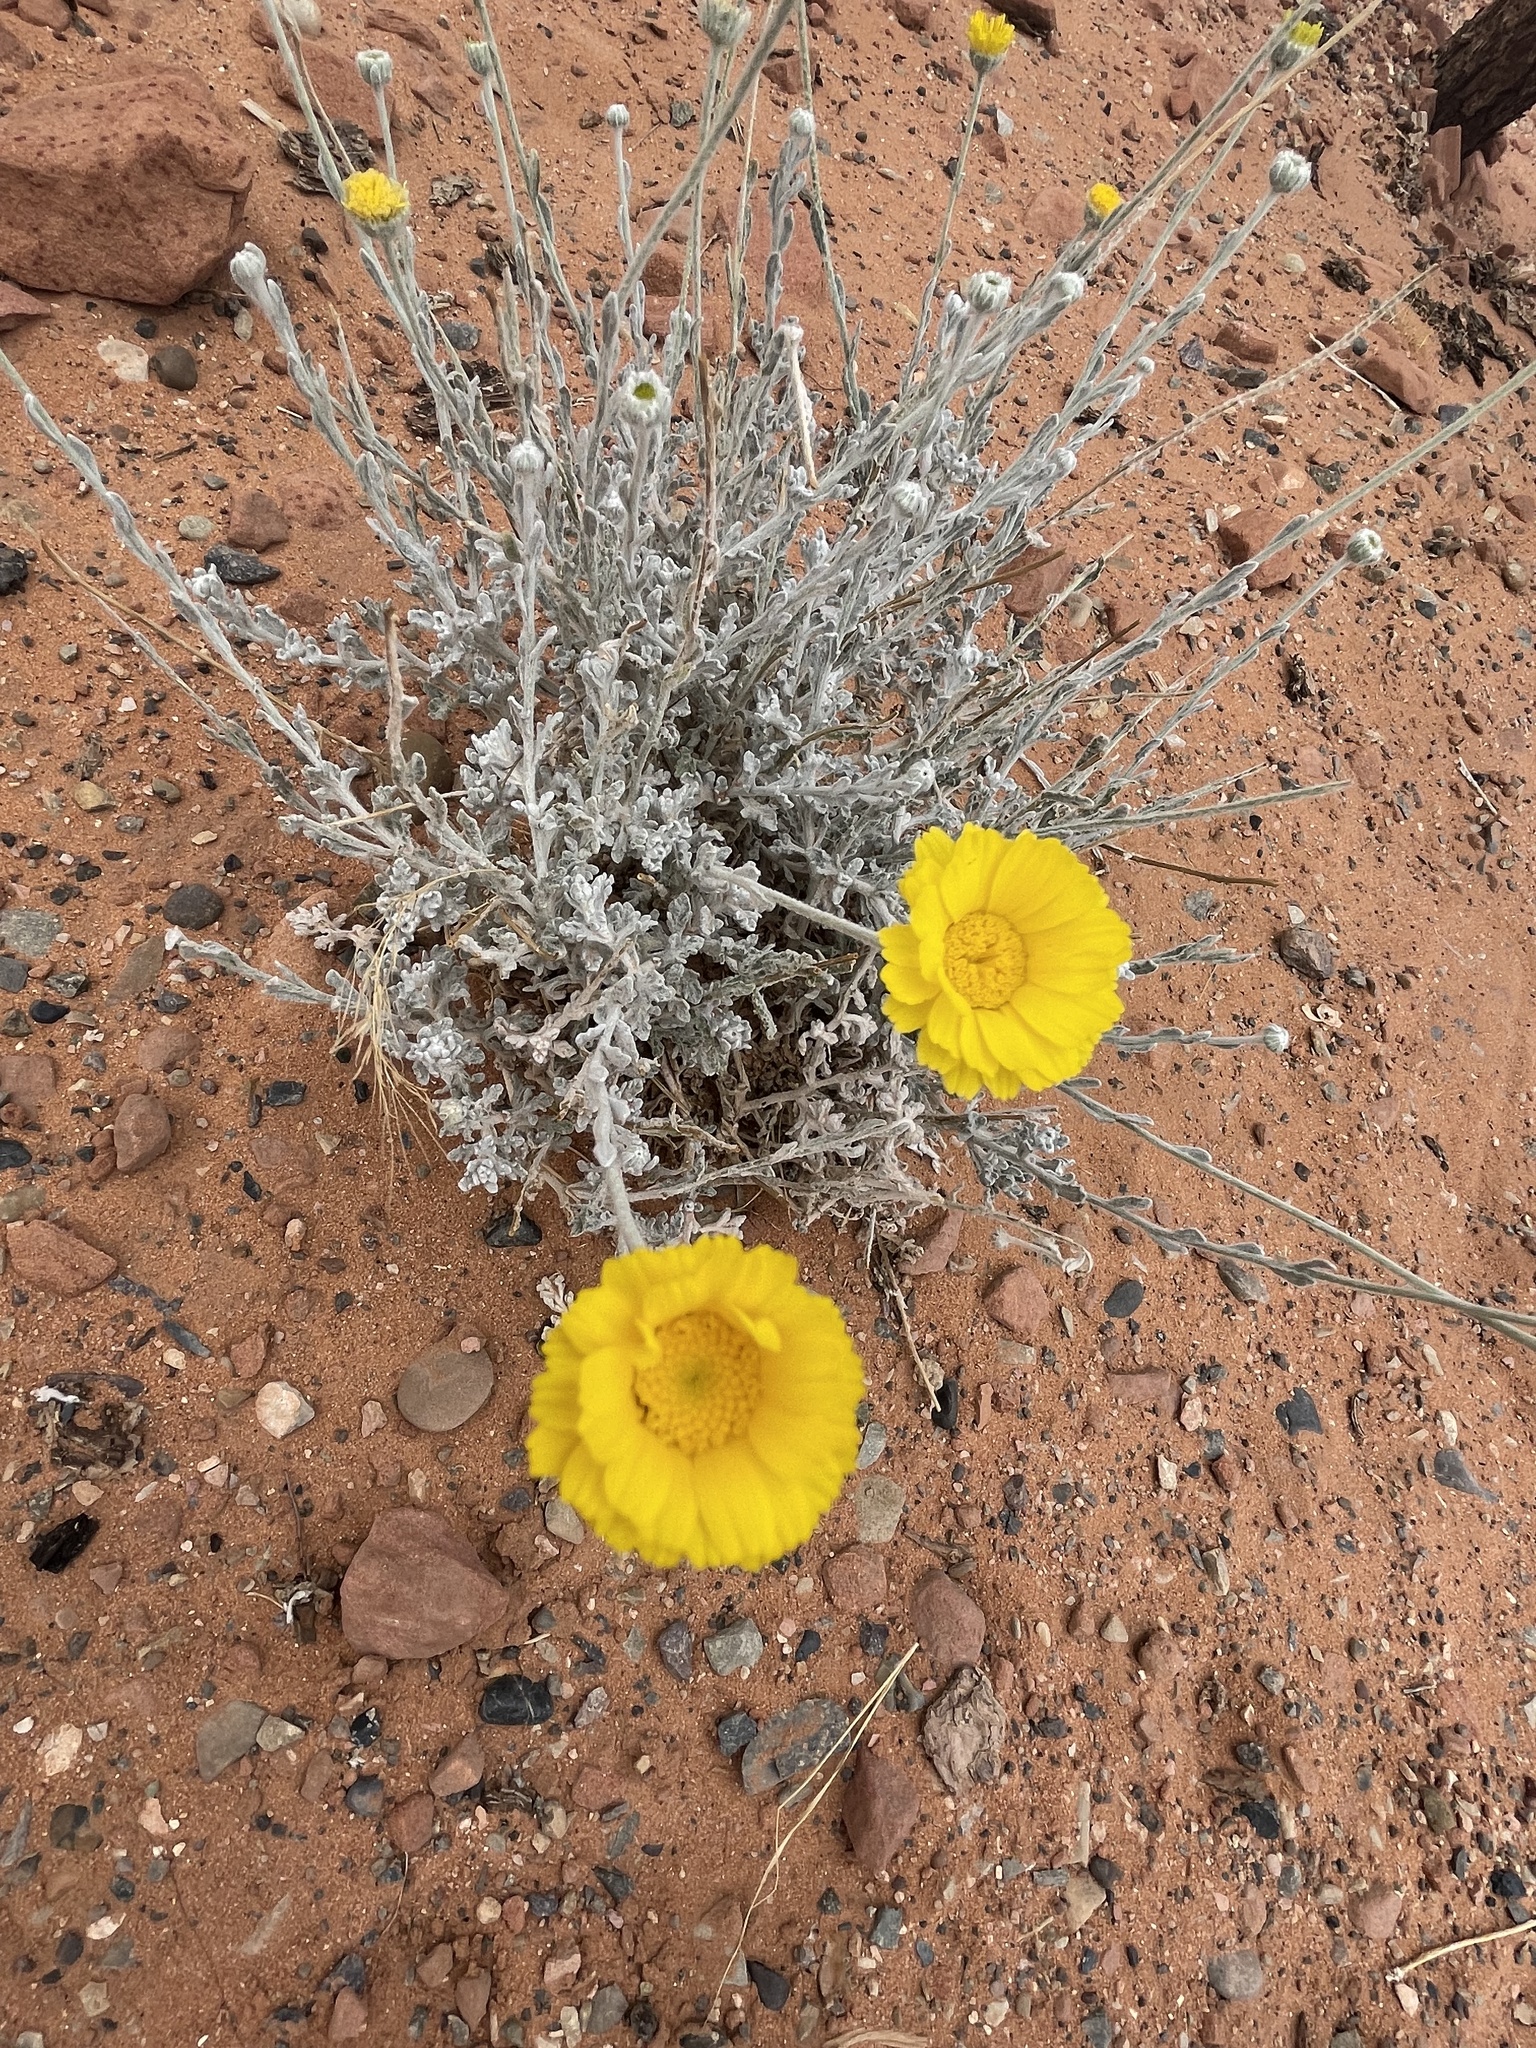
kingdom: Plantae
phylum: Tracheophyta
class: Magnoliopsida
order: Asterales
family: Asteraceae
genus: Baileya
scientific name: Baileya multiradiata
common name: Desert-marigold
